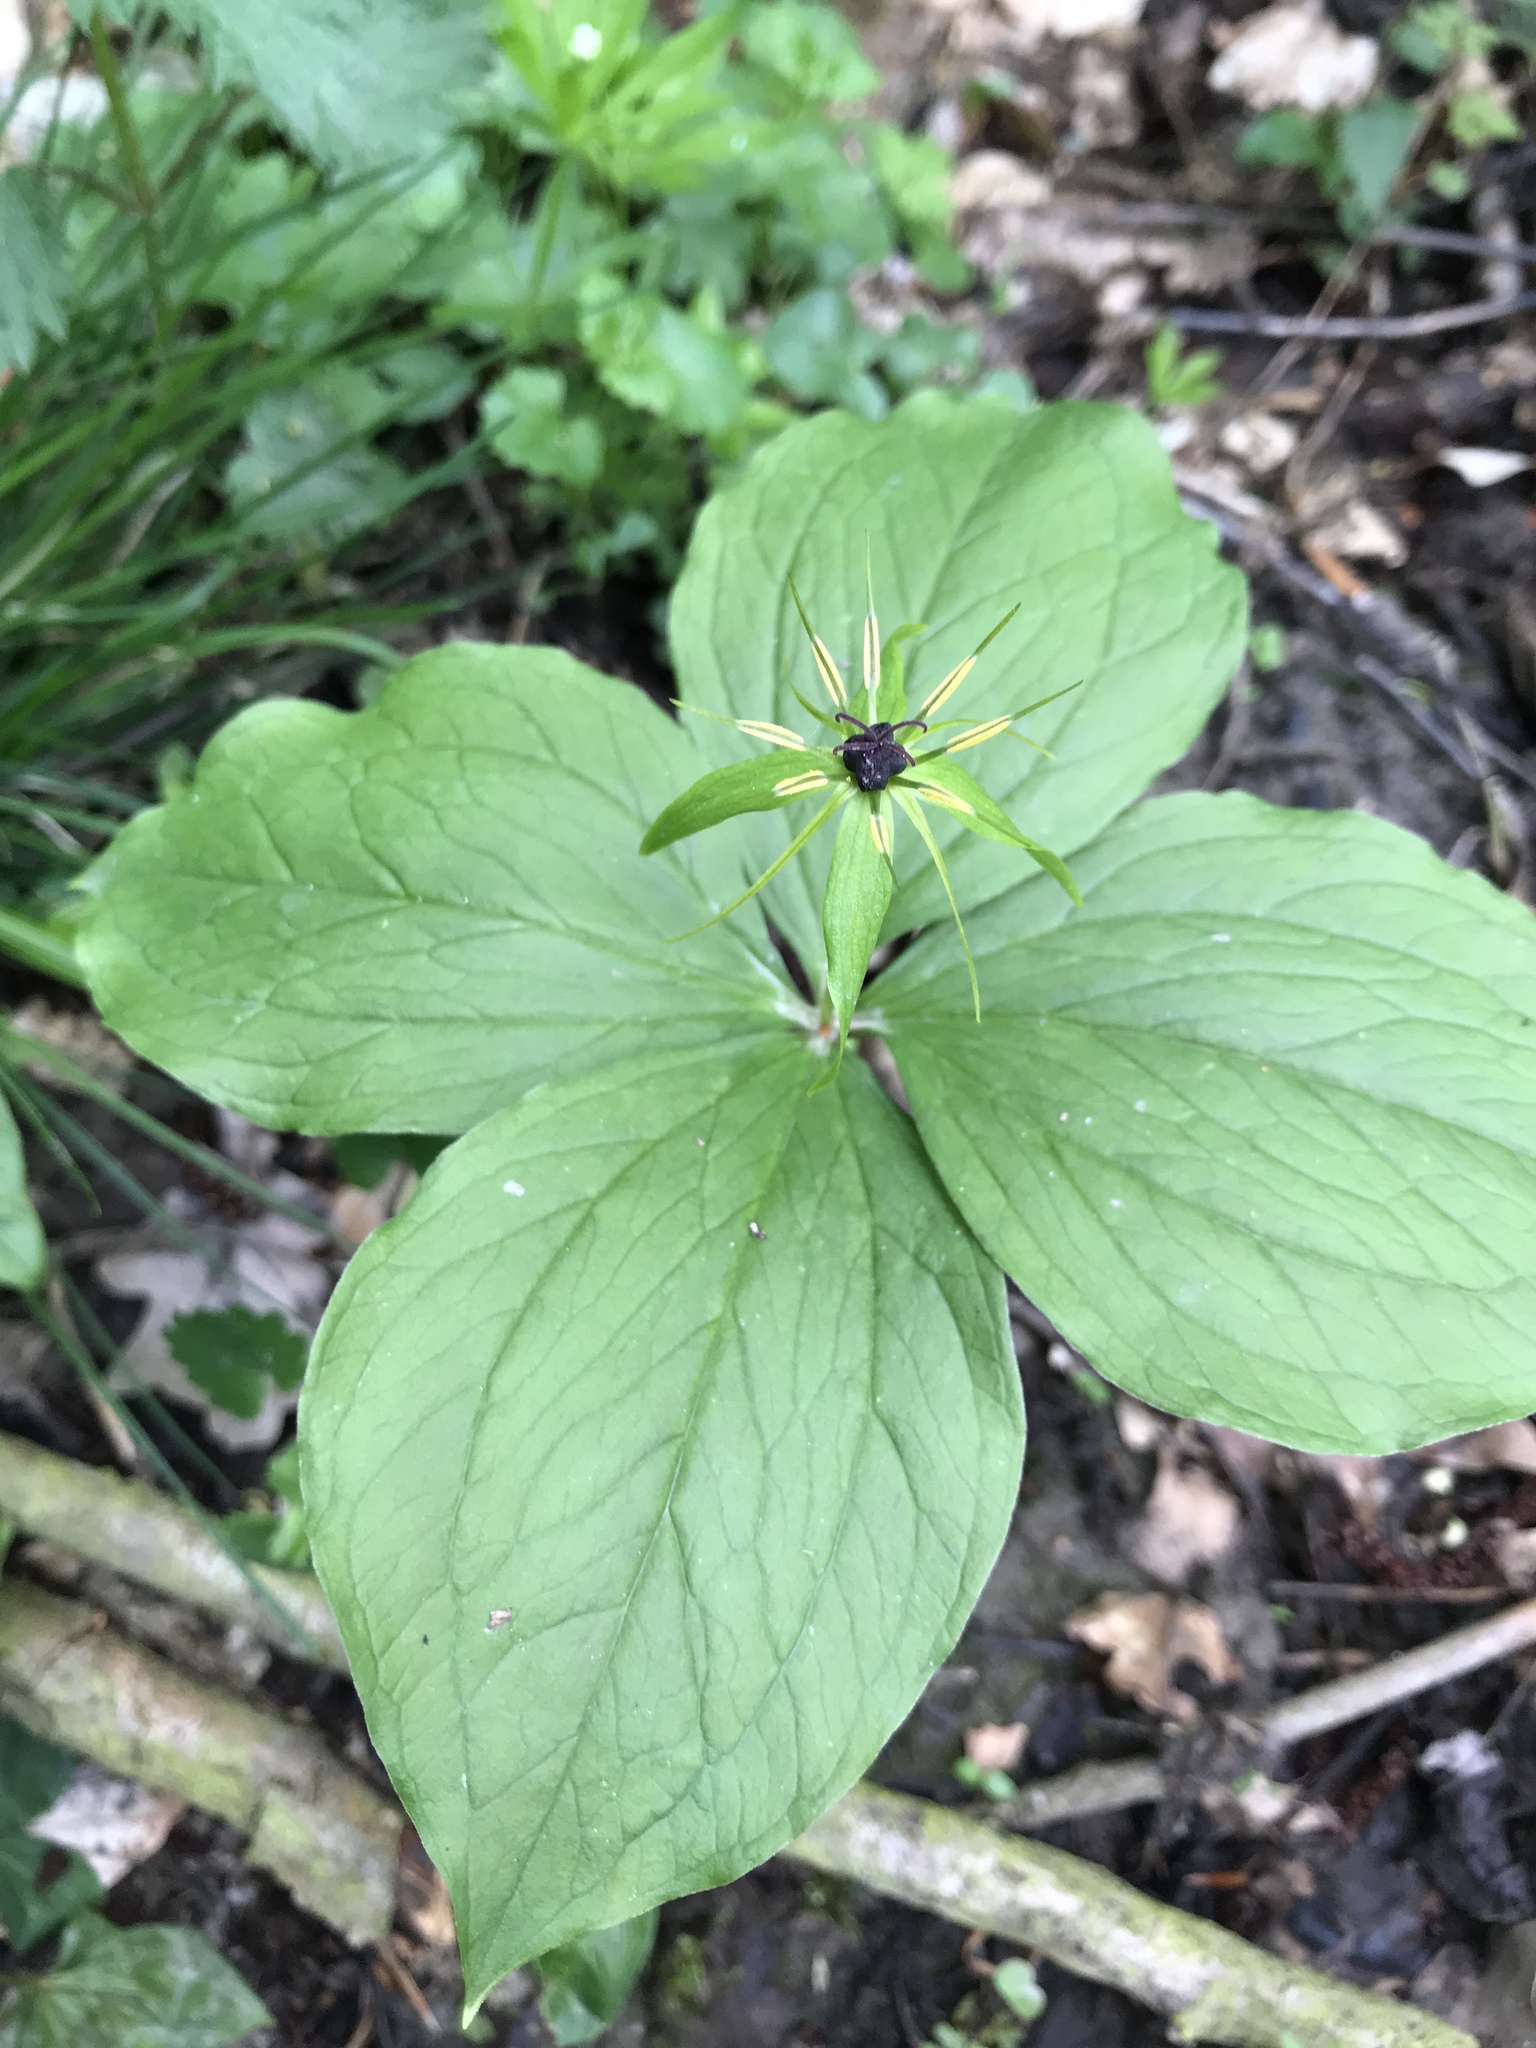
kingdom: Plantae
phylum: Tracheophyta
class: Liliopsida
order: Liliales
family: Melanthiaceae
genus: Paris
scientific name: Paris quadrifolia
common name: Herb-paris
